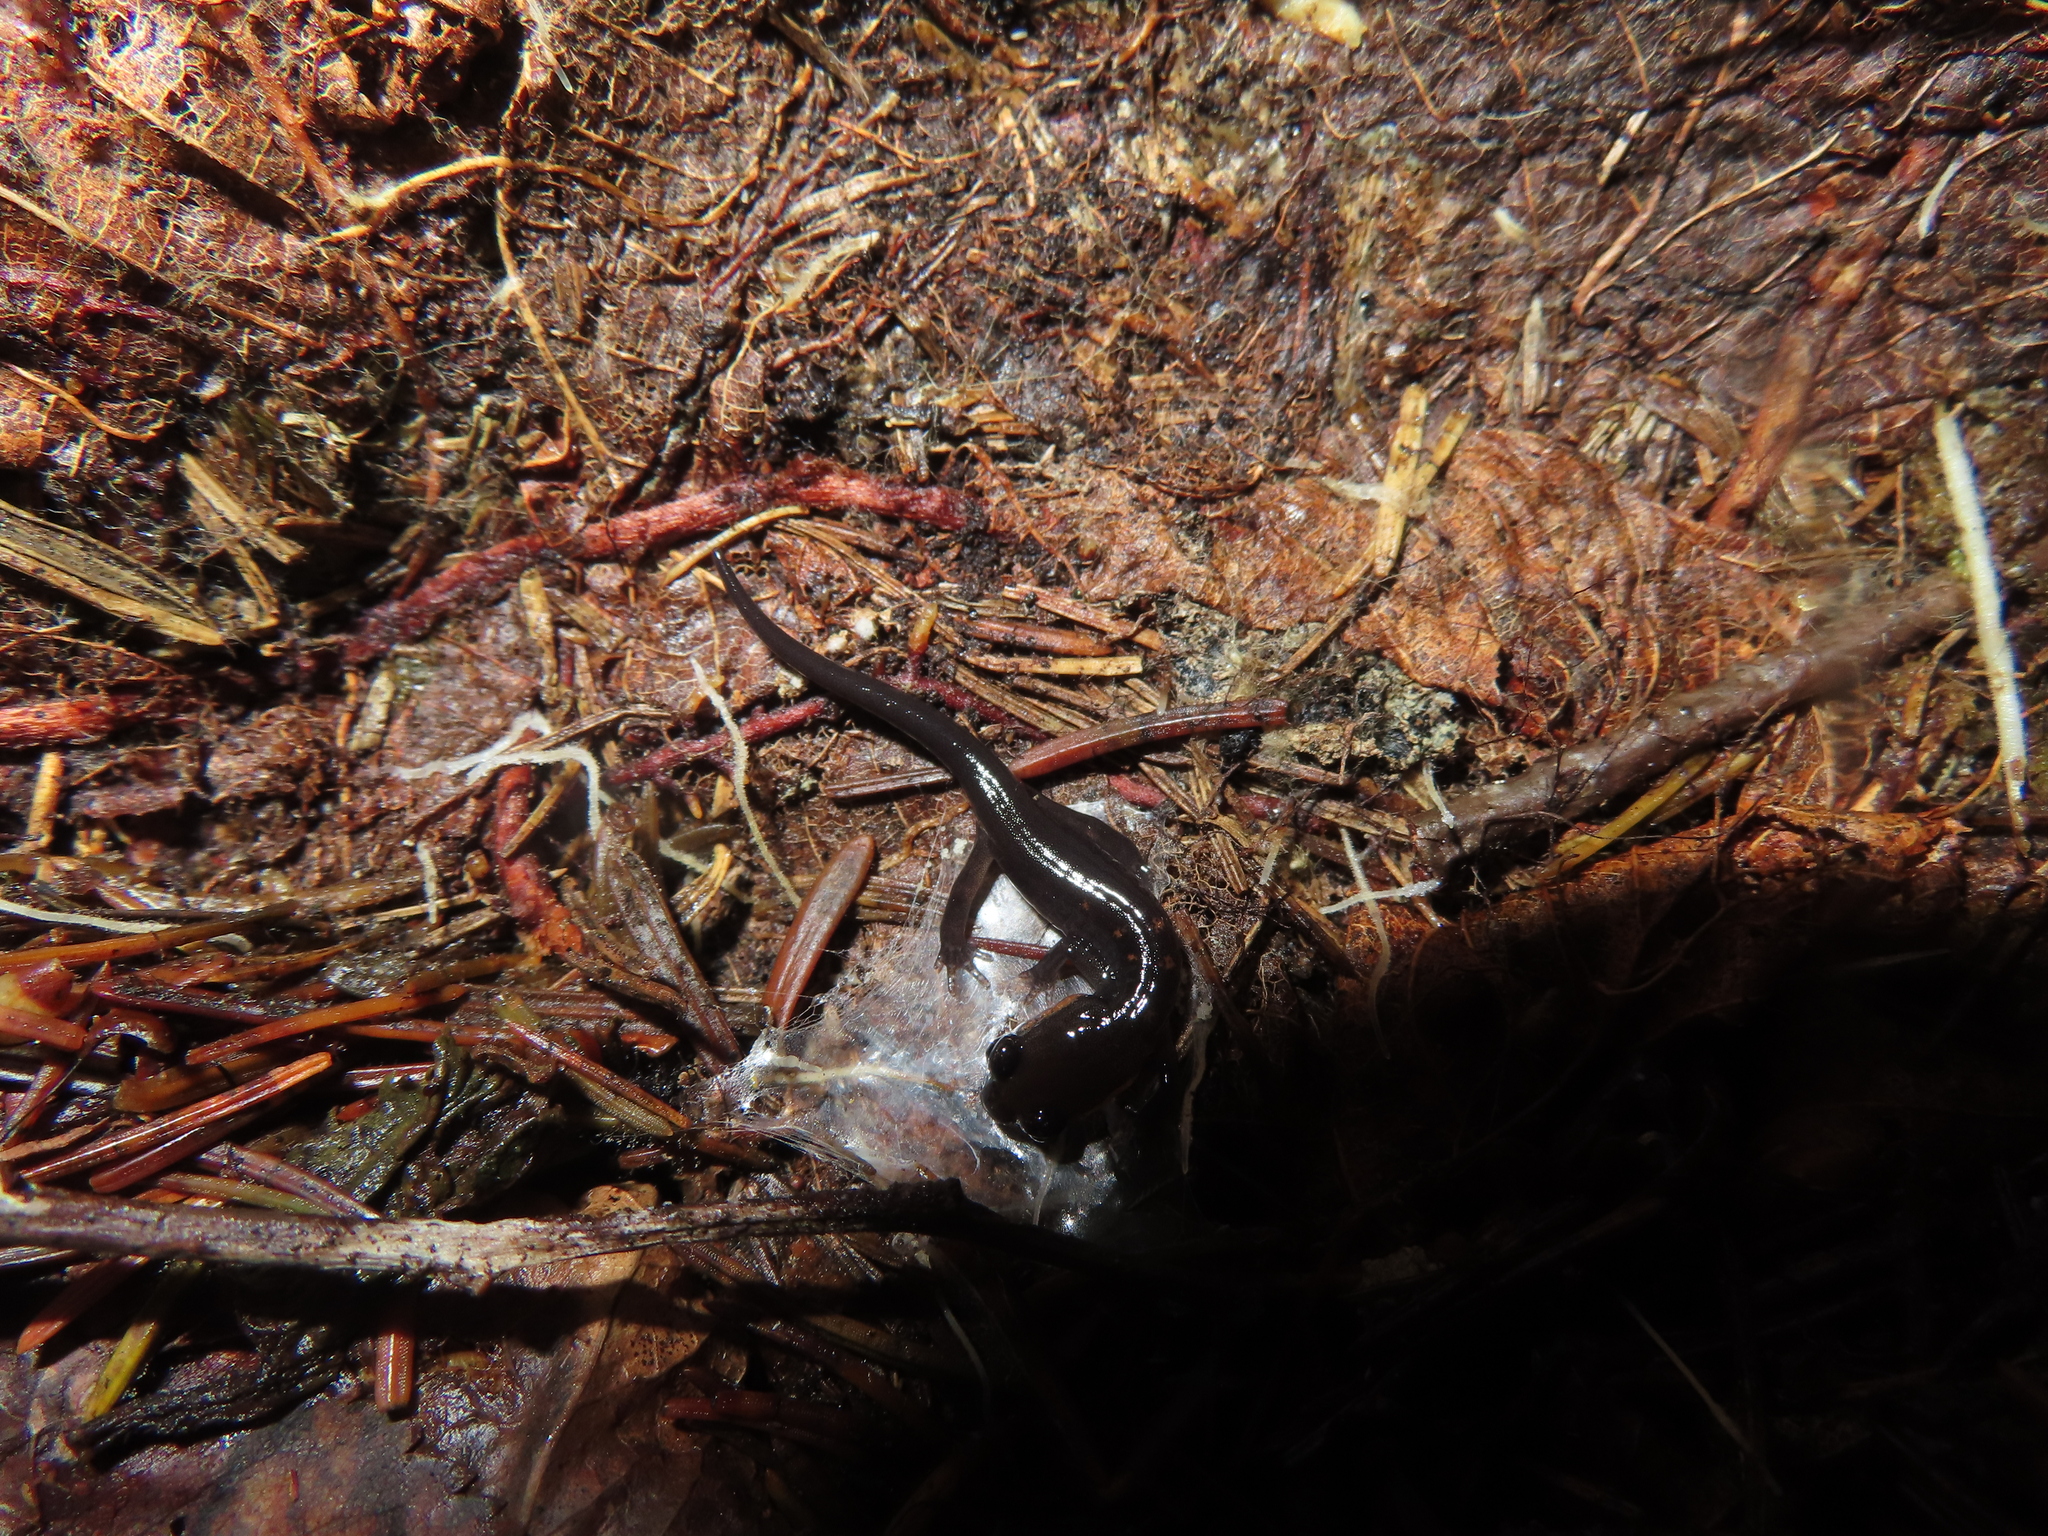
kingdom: Animalia
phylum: Chordata
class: Amphibia
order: Caudata
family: Plethodontidae
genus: Plethodon
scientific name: Plethodon jordani
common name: Red-cheeked salamander
